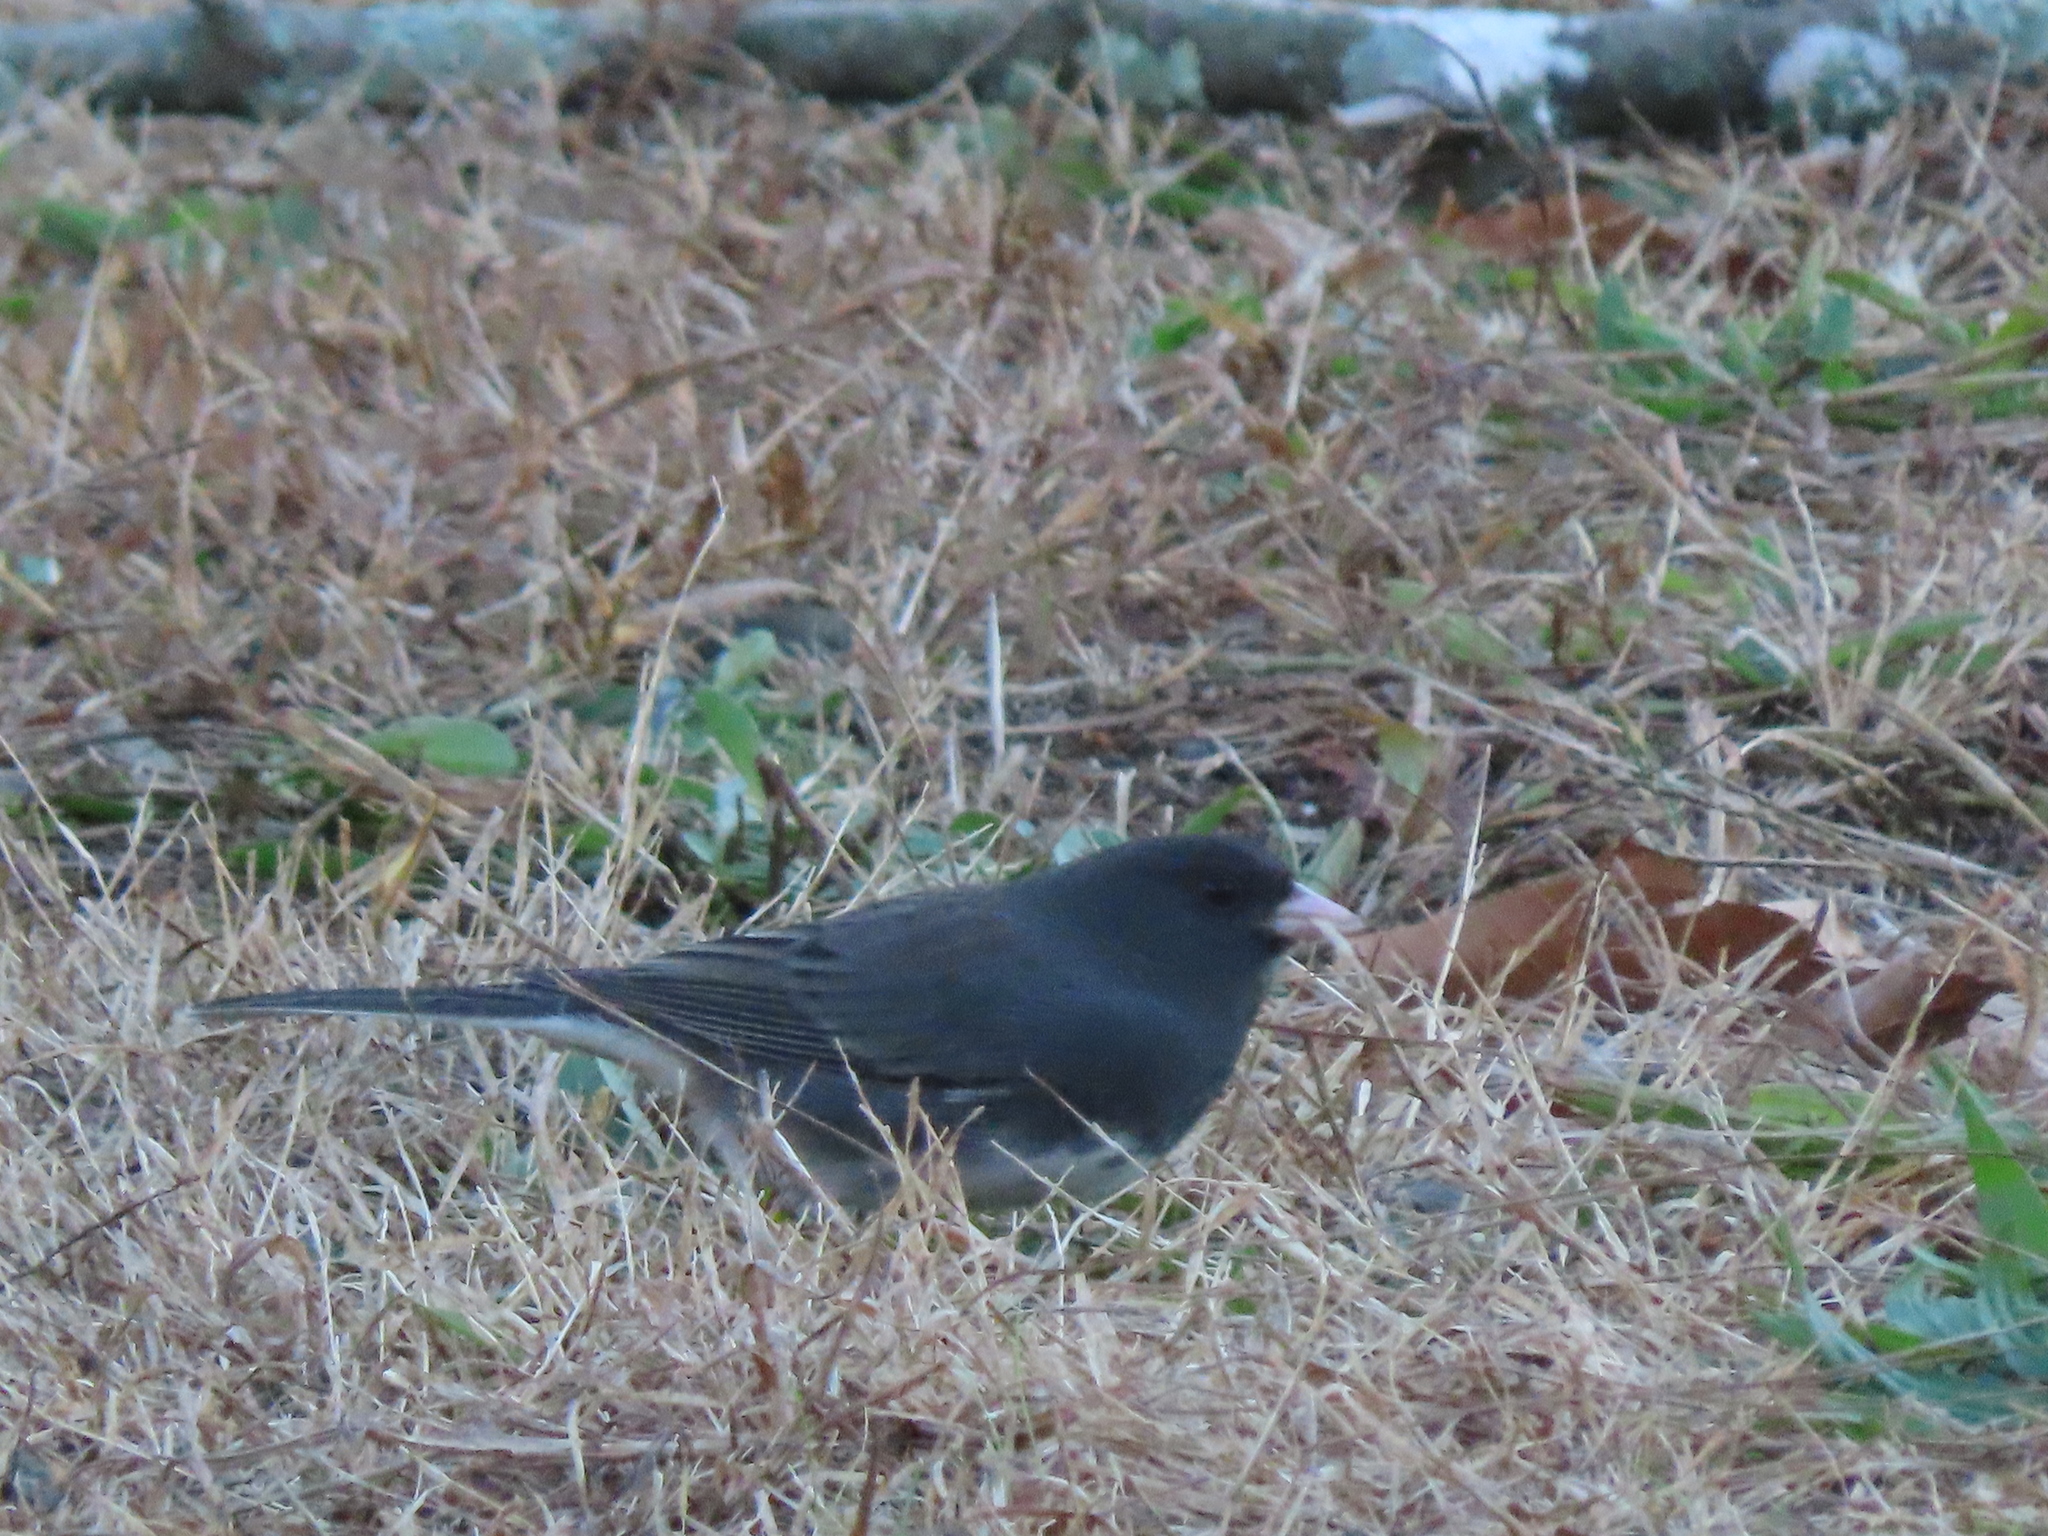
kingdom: Animalia
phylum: Chordata
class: Aves
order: Passeriformes
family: Passerellidae
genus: Junco
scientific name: Junco hyemalis
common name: Dark-eyed junco
